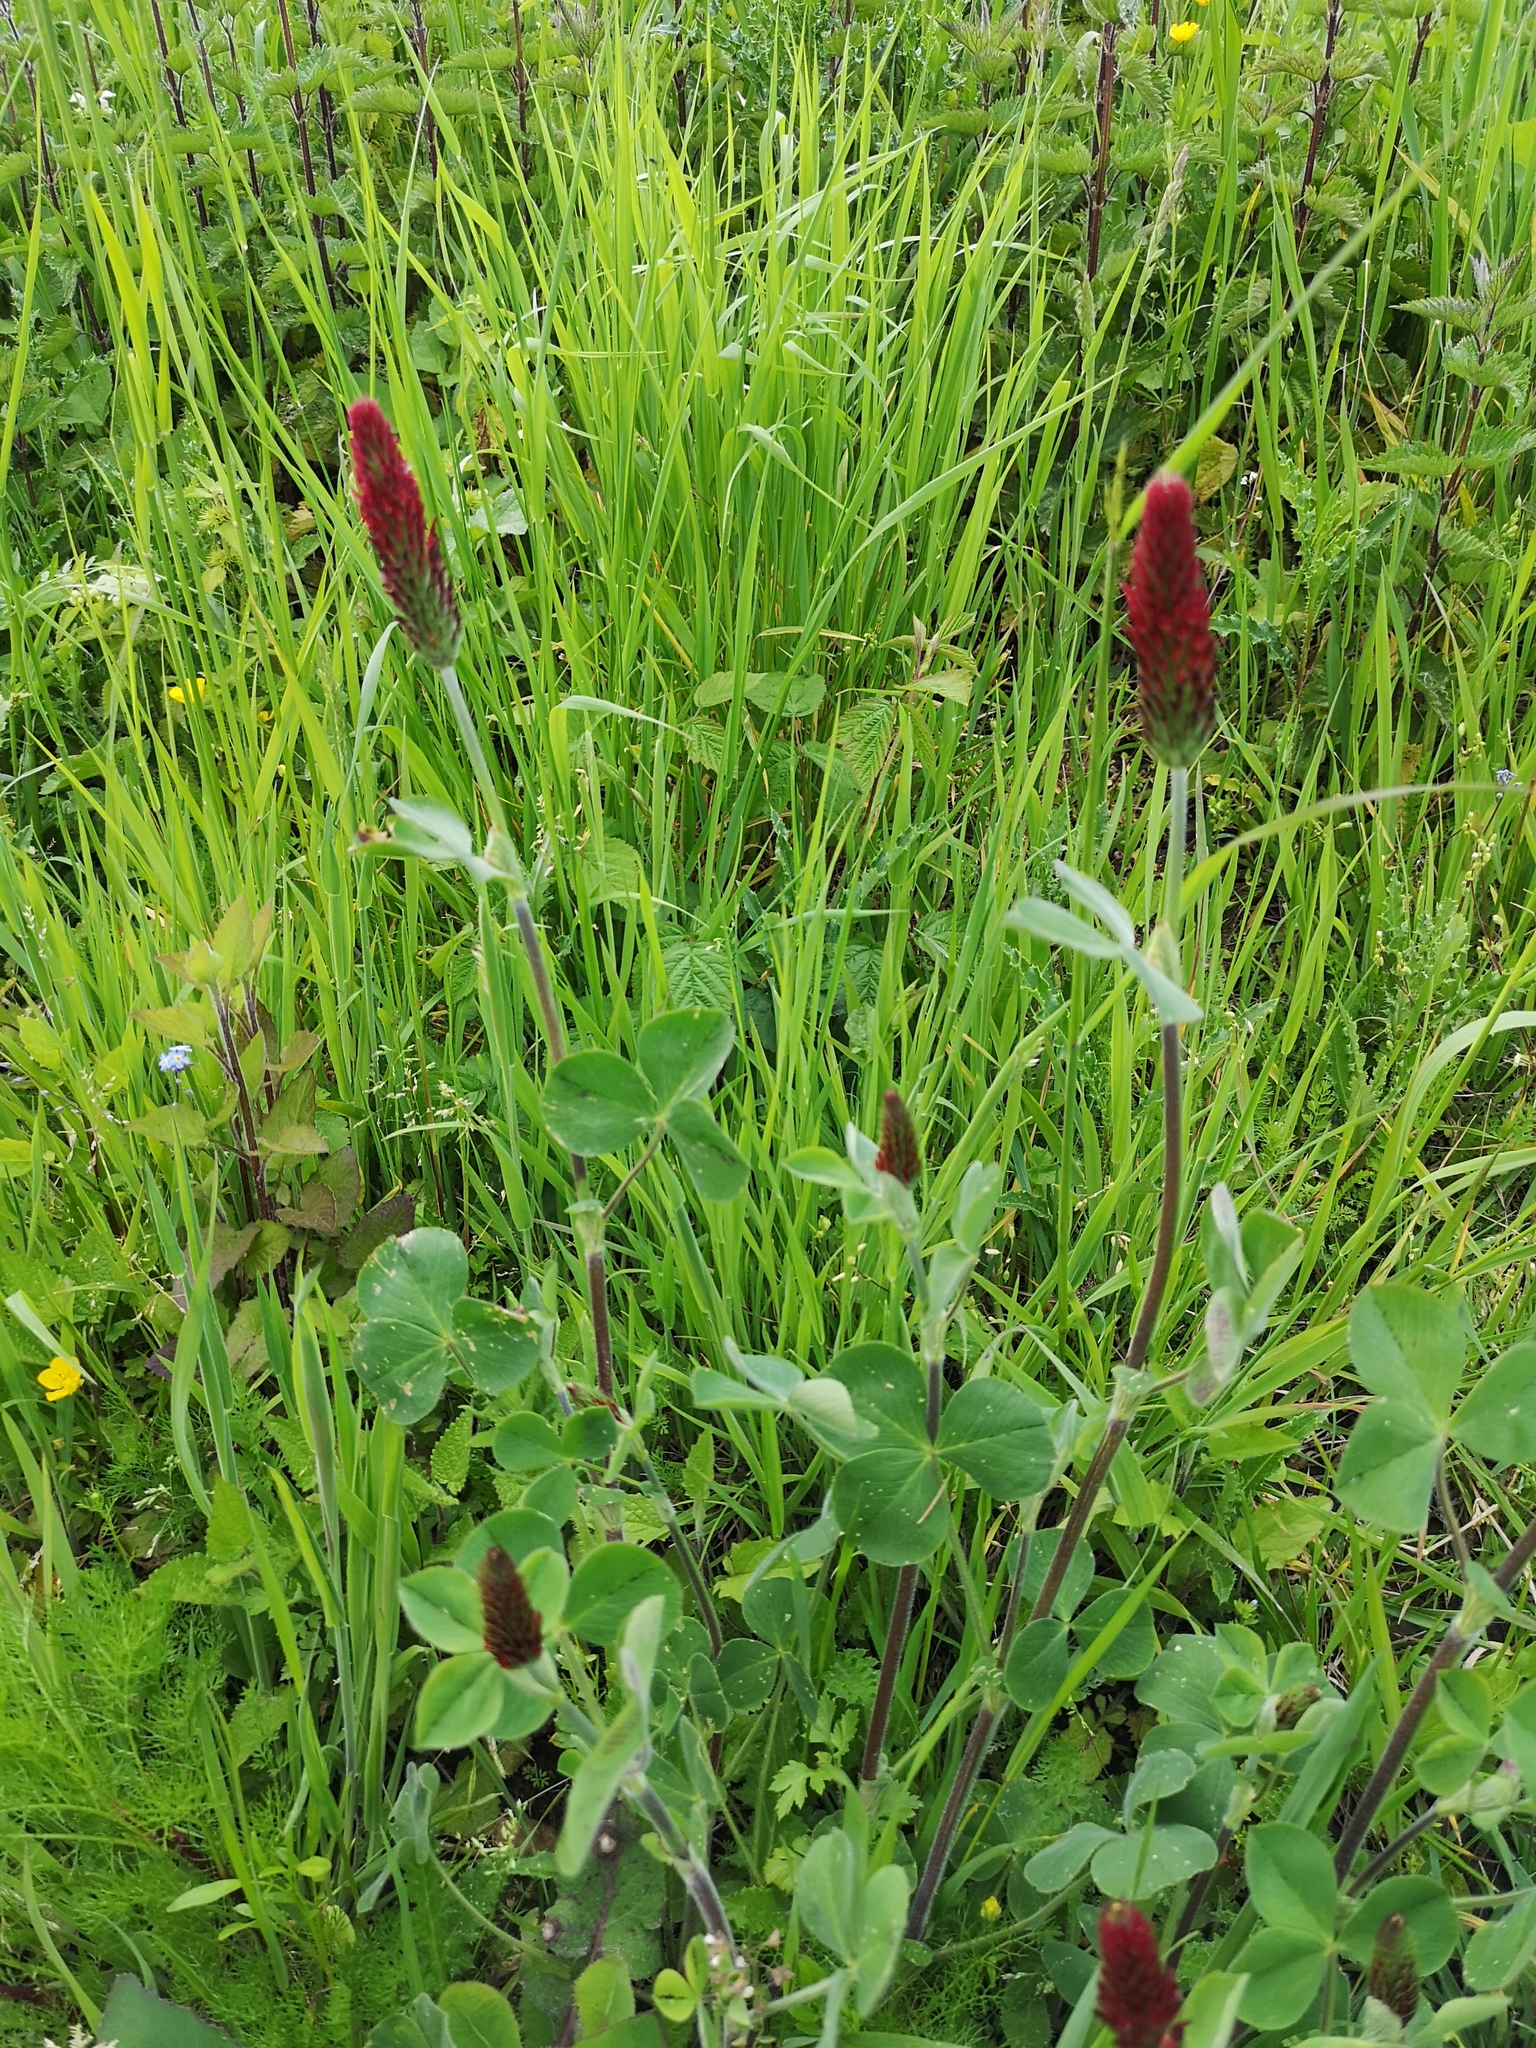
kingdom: Plantae
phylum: Tracheophyta
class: Magnoliopsida
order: Fabales
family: Fabaceae
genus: Trifolium
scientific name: Trifolium incarnatum
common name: Crimson clover
